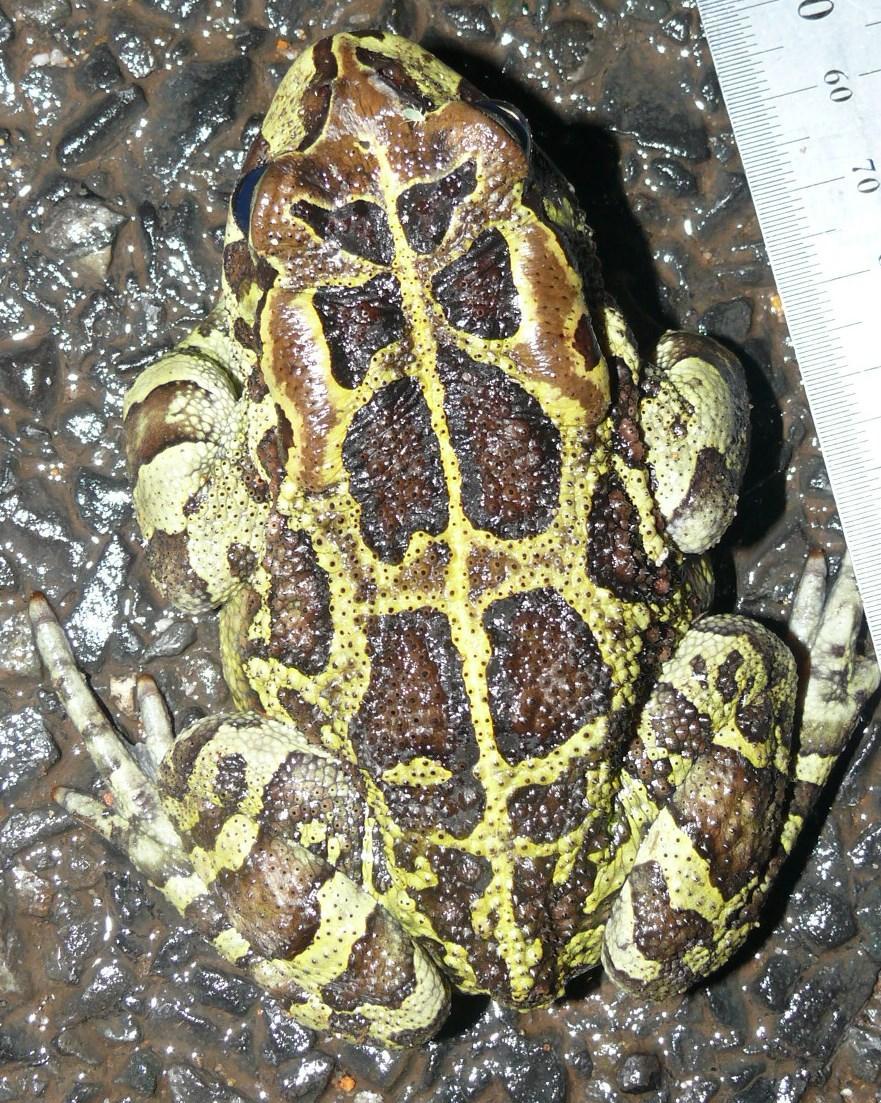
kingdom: Animalia
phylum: Chordata
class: Amphibia
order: Anura
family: Bufonidae
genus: Sclerophrys
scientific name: Sclerophrys pantherina
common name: Panther toad
